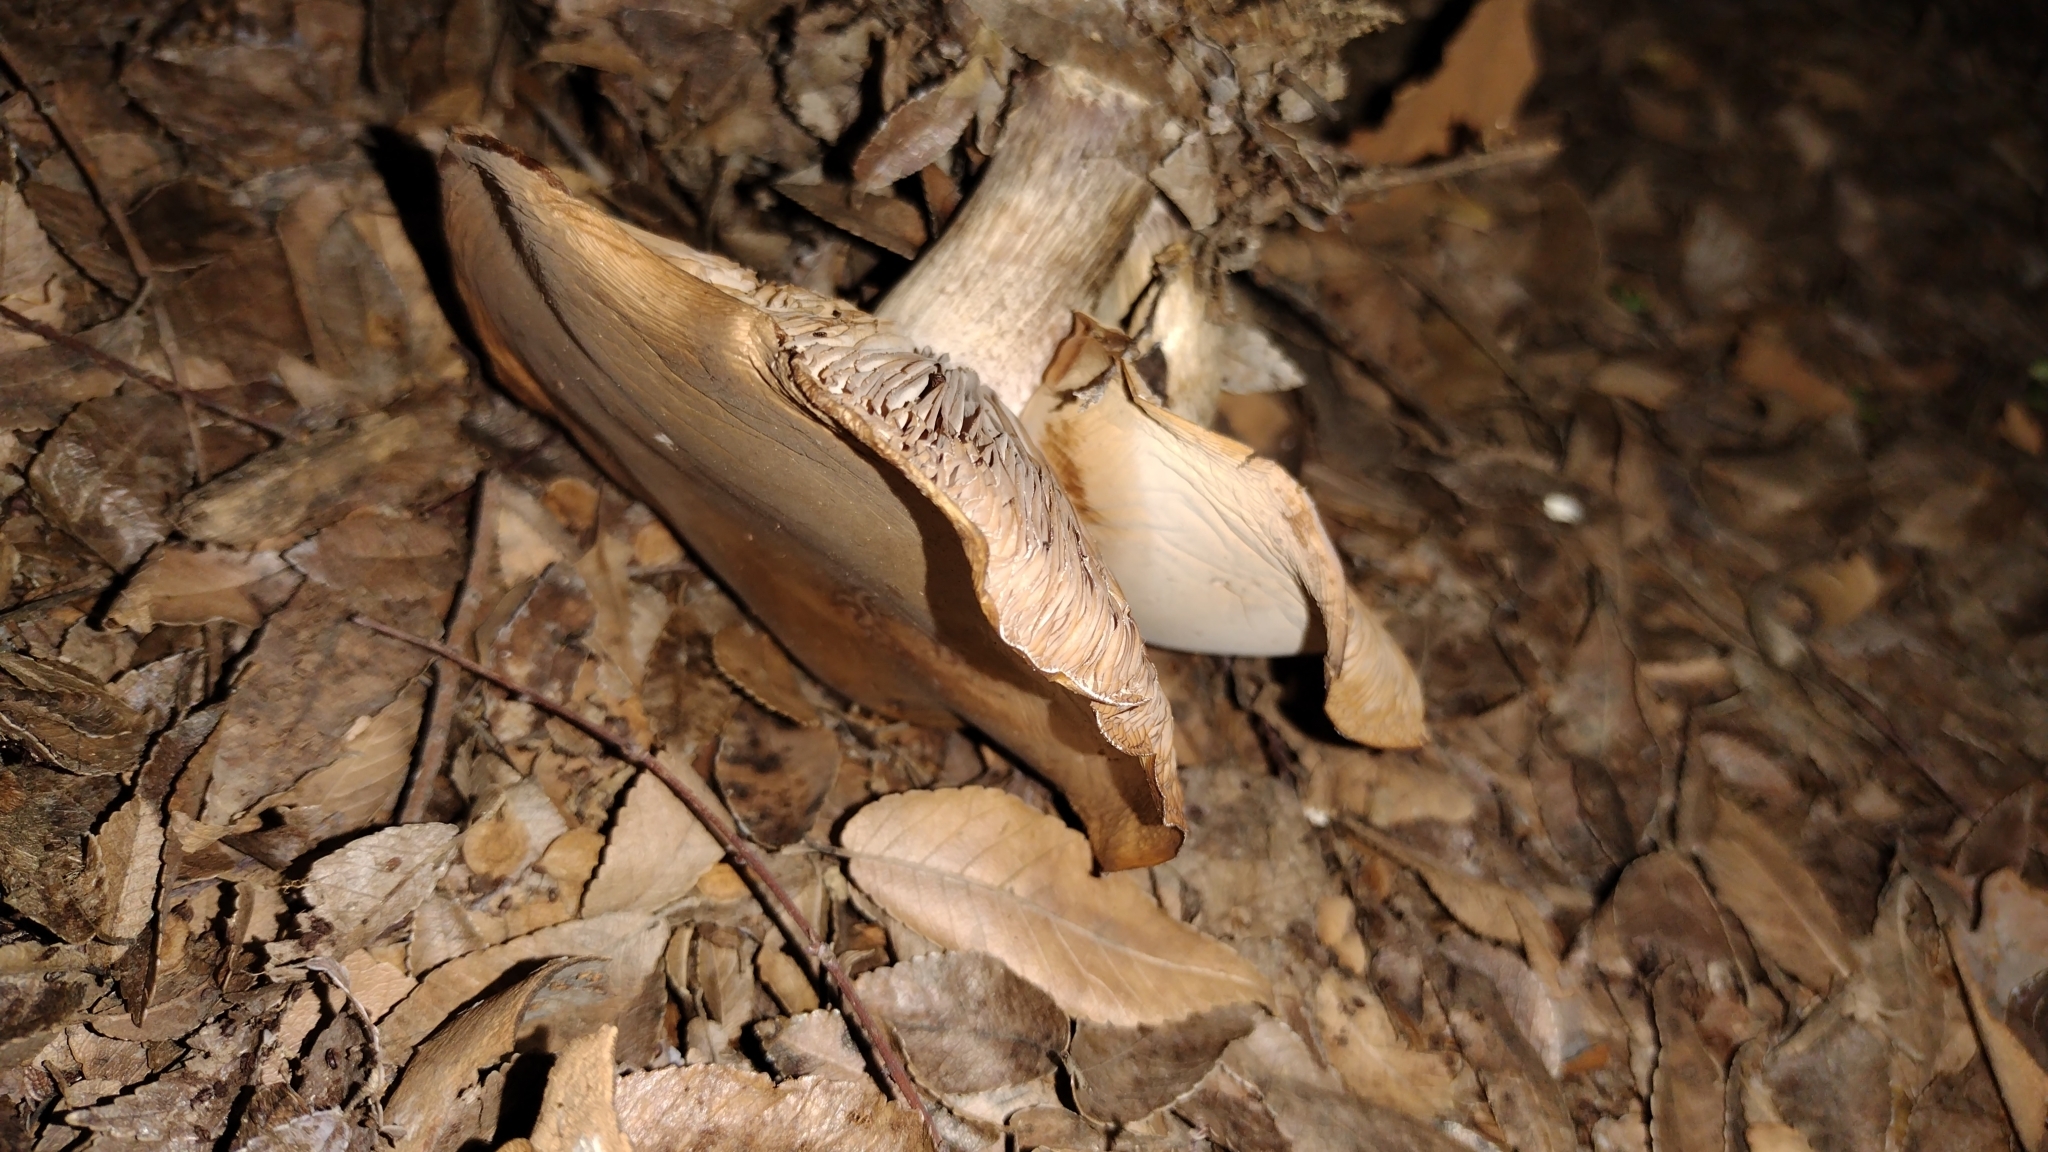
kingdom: Fungi
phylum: Basidiomycota
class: Agaricomycetes
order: Agaricales
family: Tricholomataceae
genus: Collybia
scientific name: Collybia
